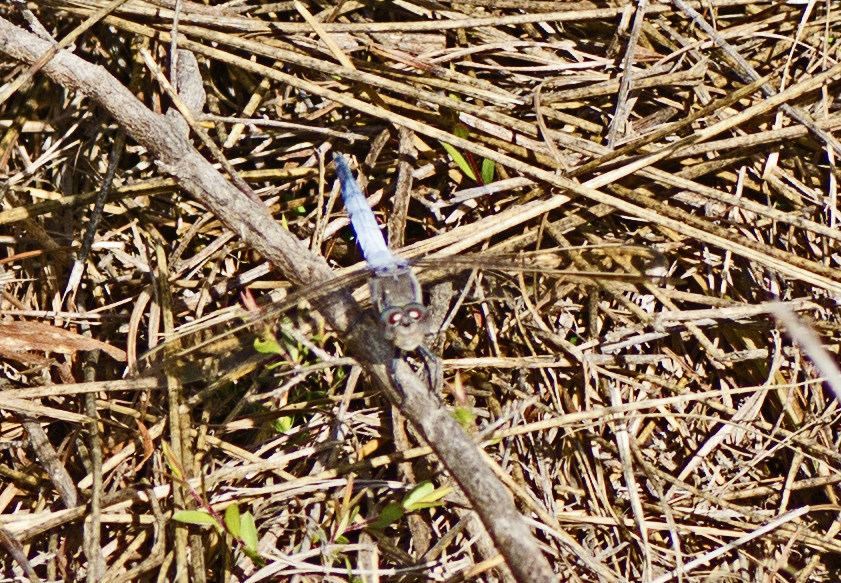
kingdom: Animalia
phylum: Arthropoda
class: Insecta
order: Odonata
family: Libellulidae
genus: Orthetrum
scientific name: Orthetrum caledonicum
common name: Blue skimmer
